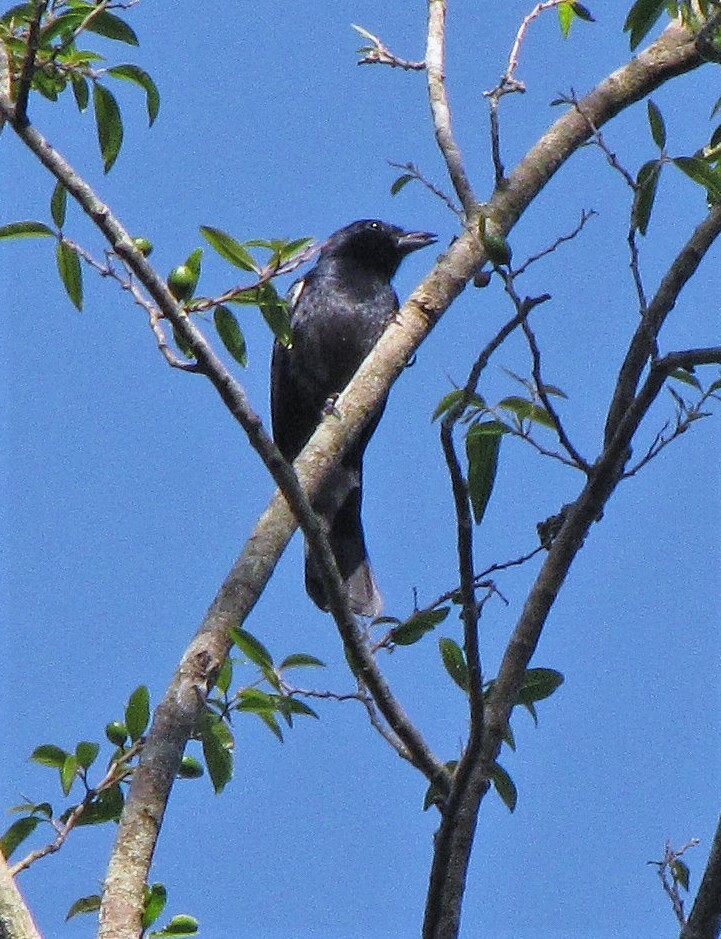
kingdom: Animalia
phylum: Chordata
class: Aves
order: Passeriformes
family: Thraupidae
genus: Tachyphonus
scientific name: Tachyphonus coronatus
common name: Ruby-crowned tanager
